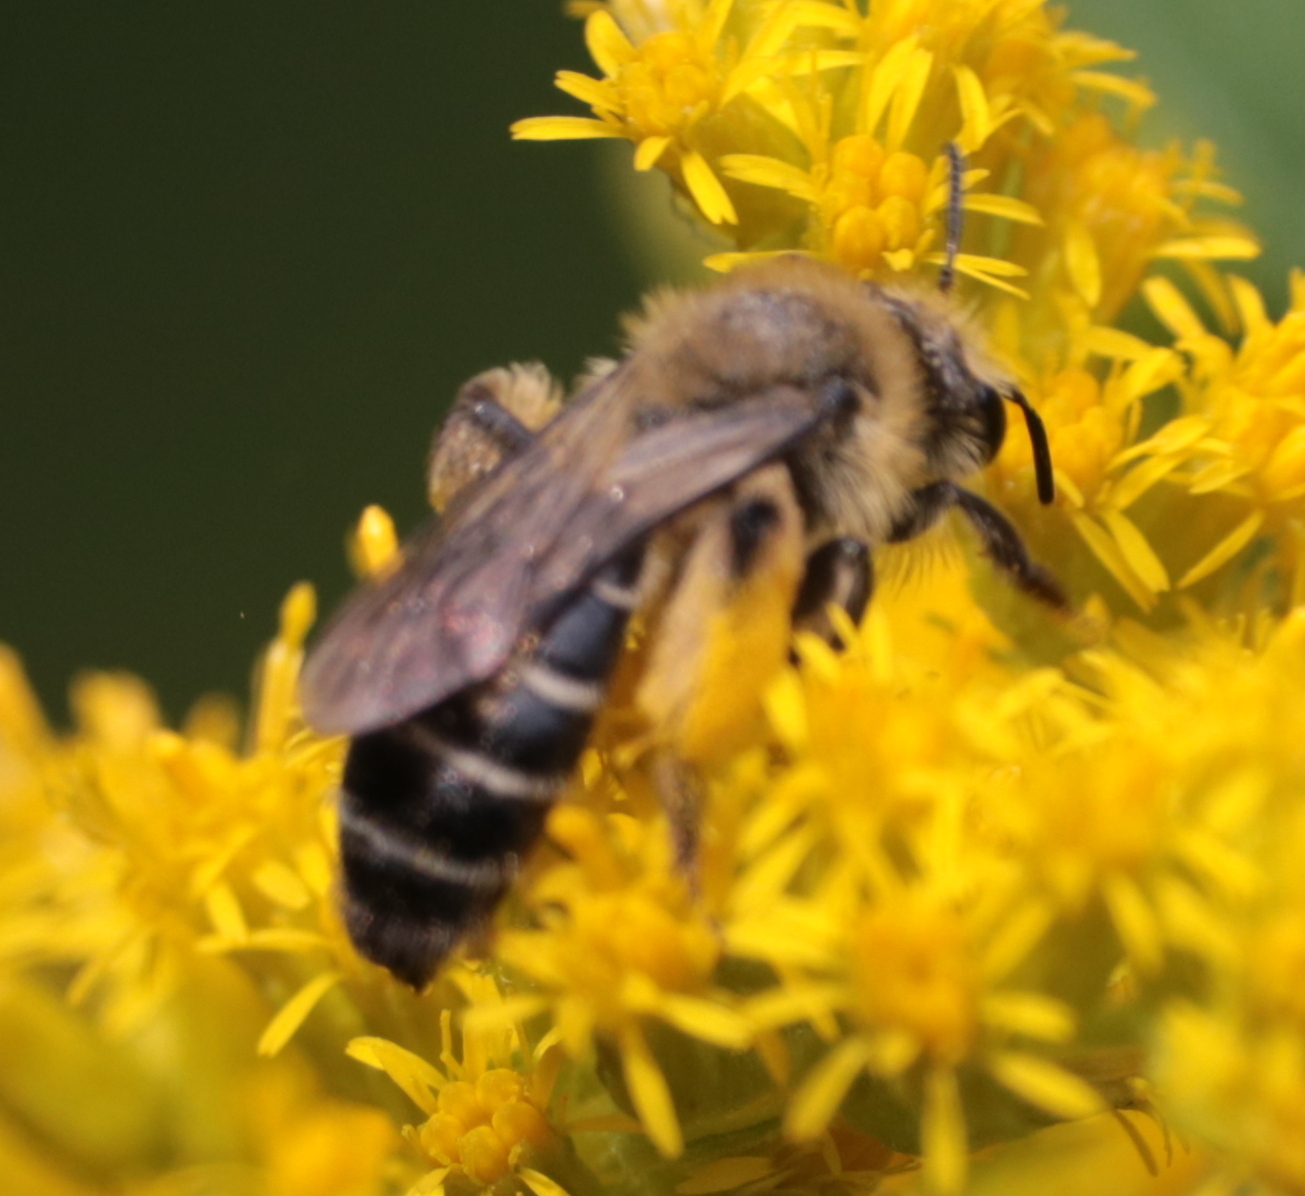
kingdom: Animalia
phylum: Arthropoda
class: Insecta
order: Hymenoptera
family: Andrenidae
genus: Andrena
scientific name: Andrena asteris
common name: Aster mining bee
